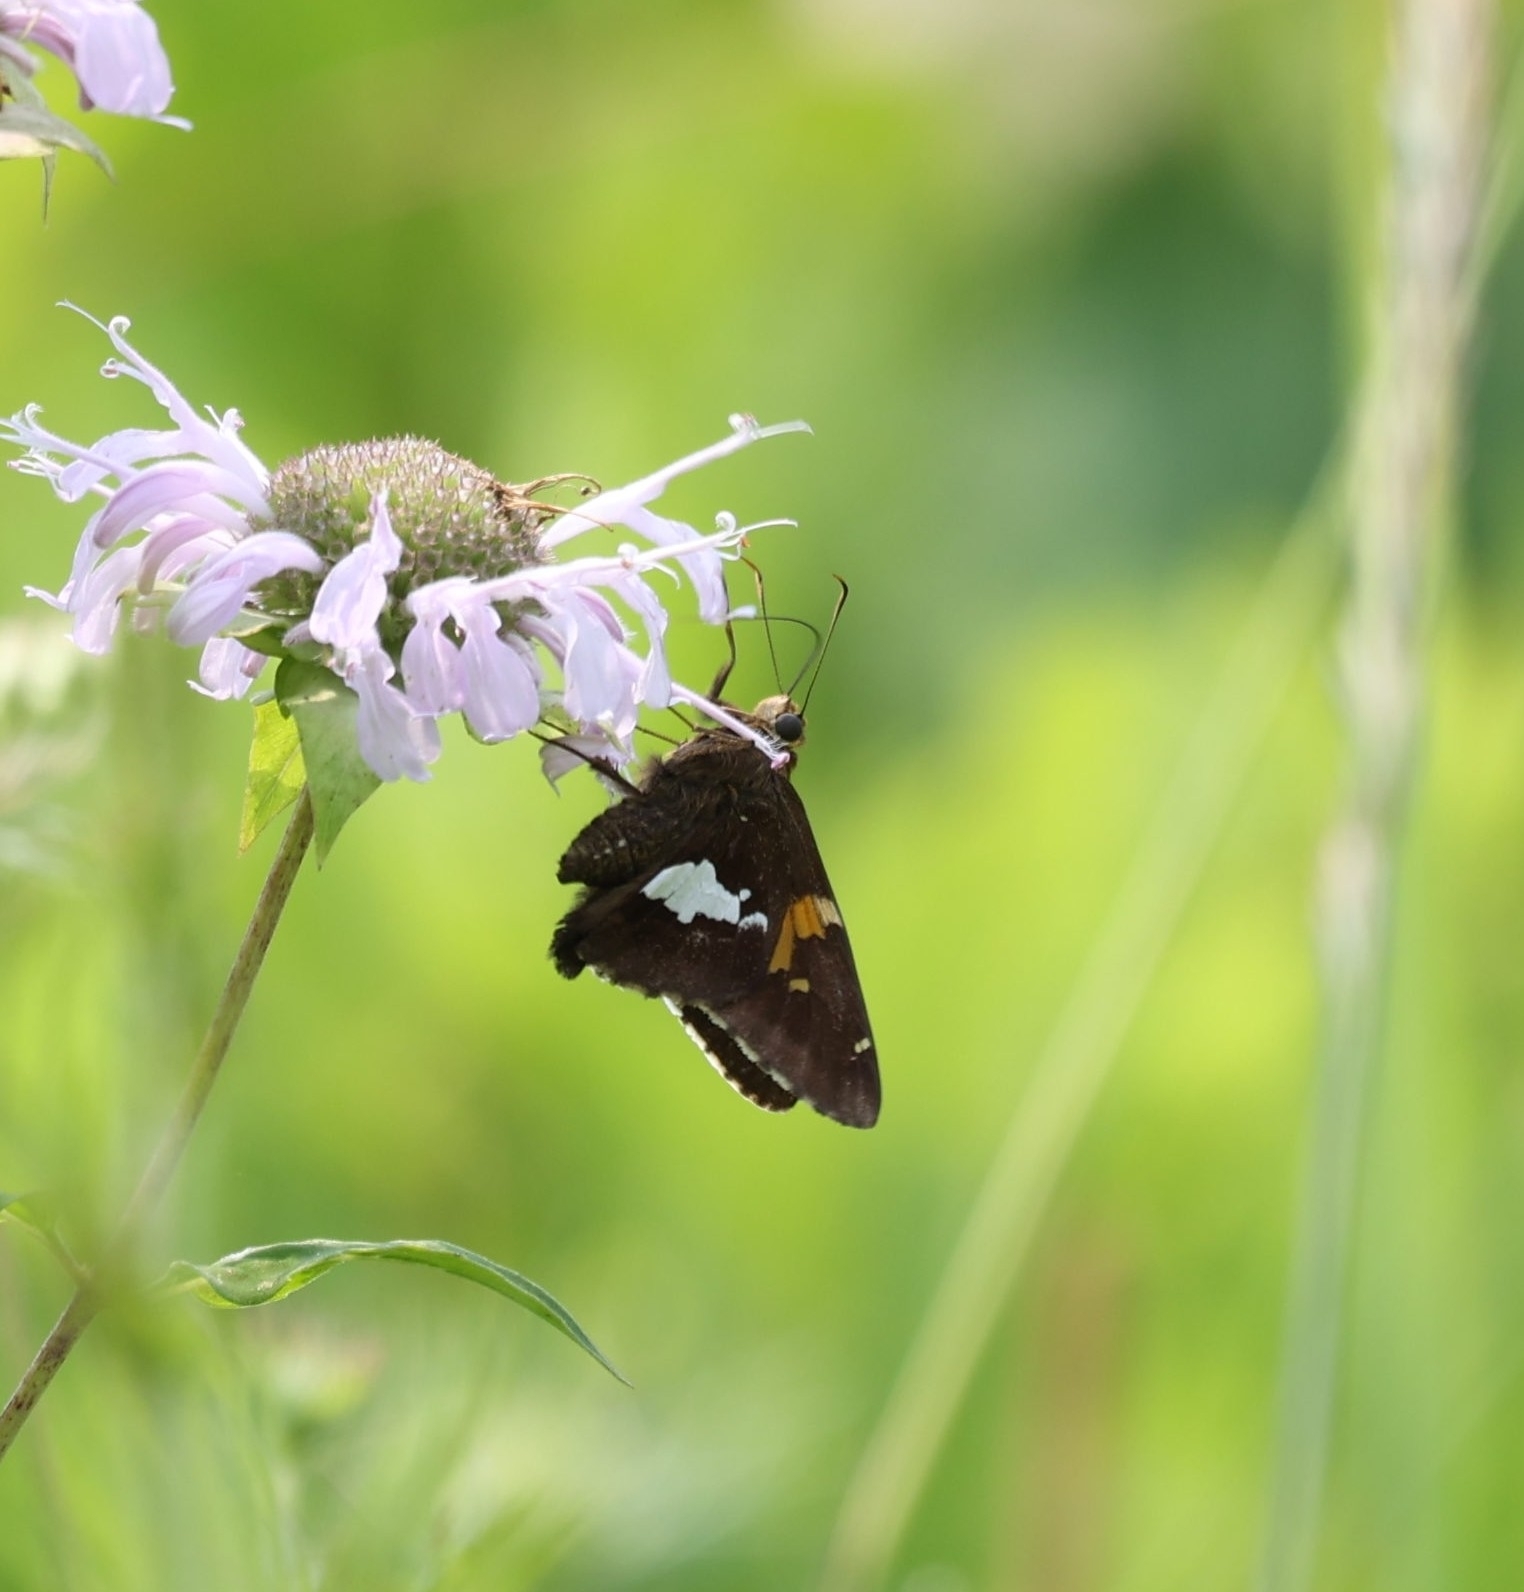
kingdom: Animalia
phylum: Arthropoda
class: Insecta
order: Lepidoptera
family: Hesperiidae
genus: Epargyreus
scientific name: Epargyreus clarus
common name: Silver-spotted skipper
